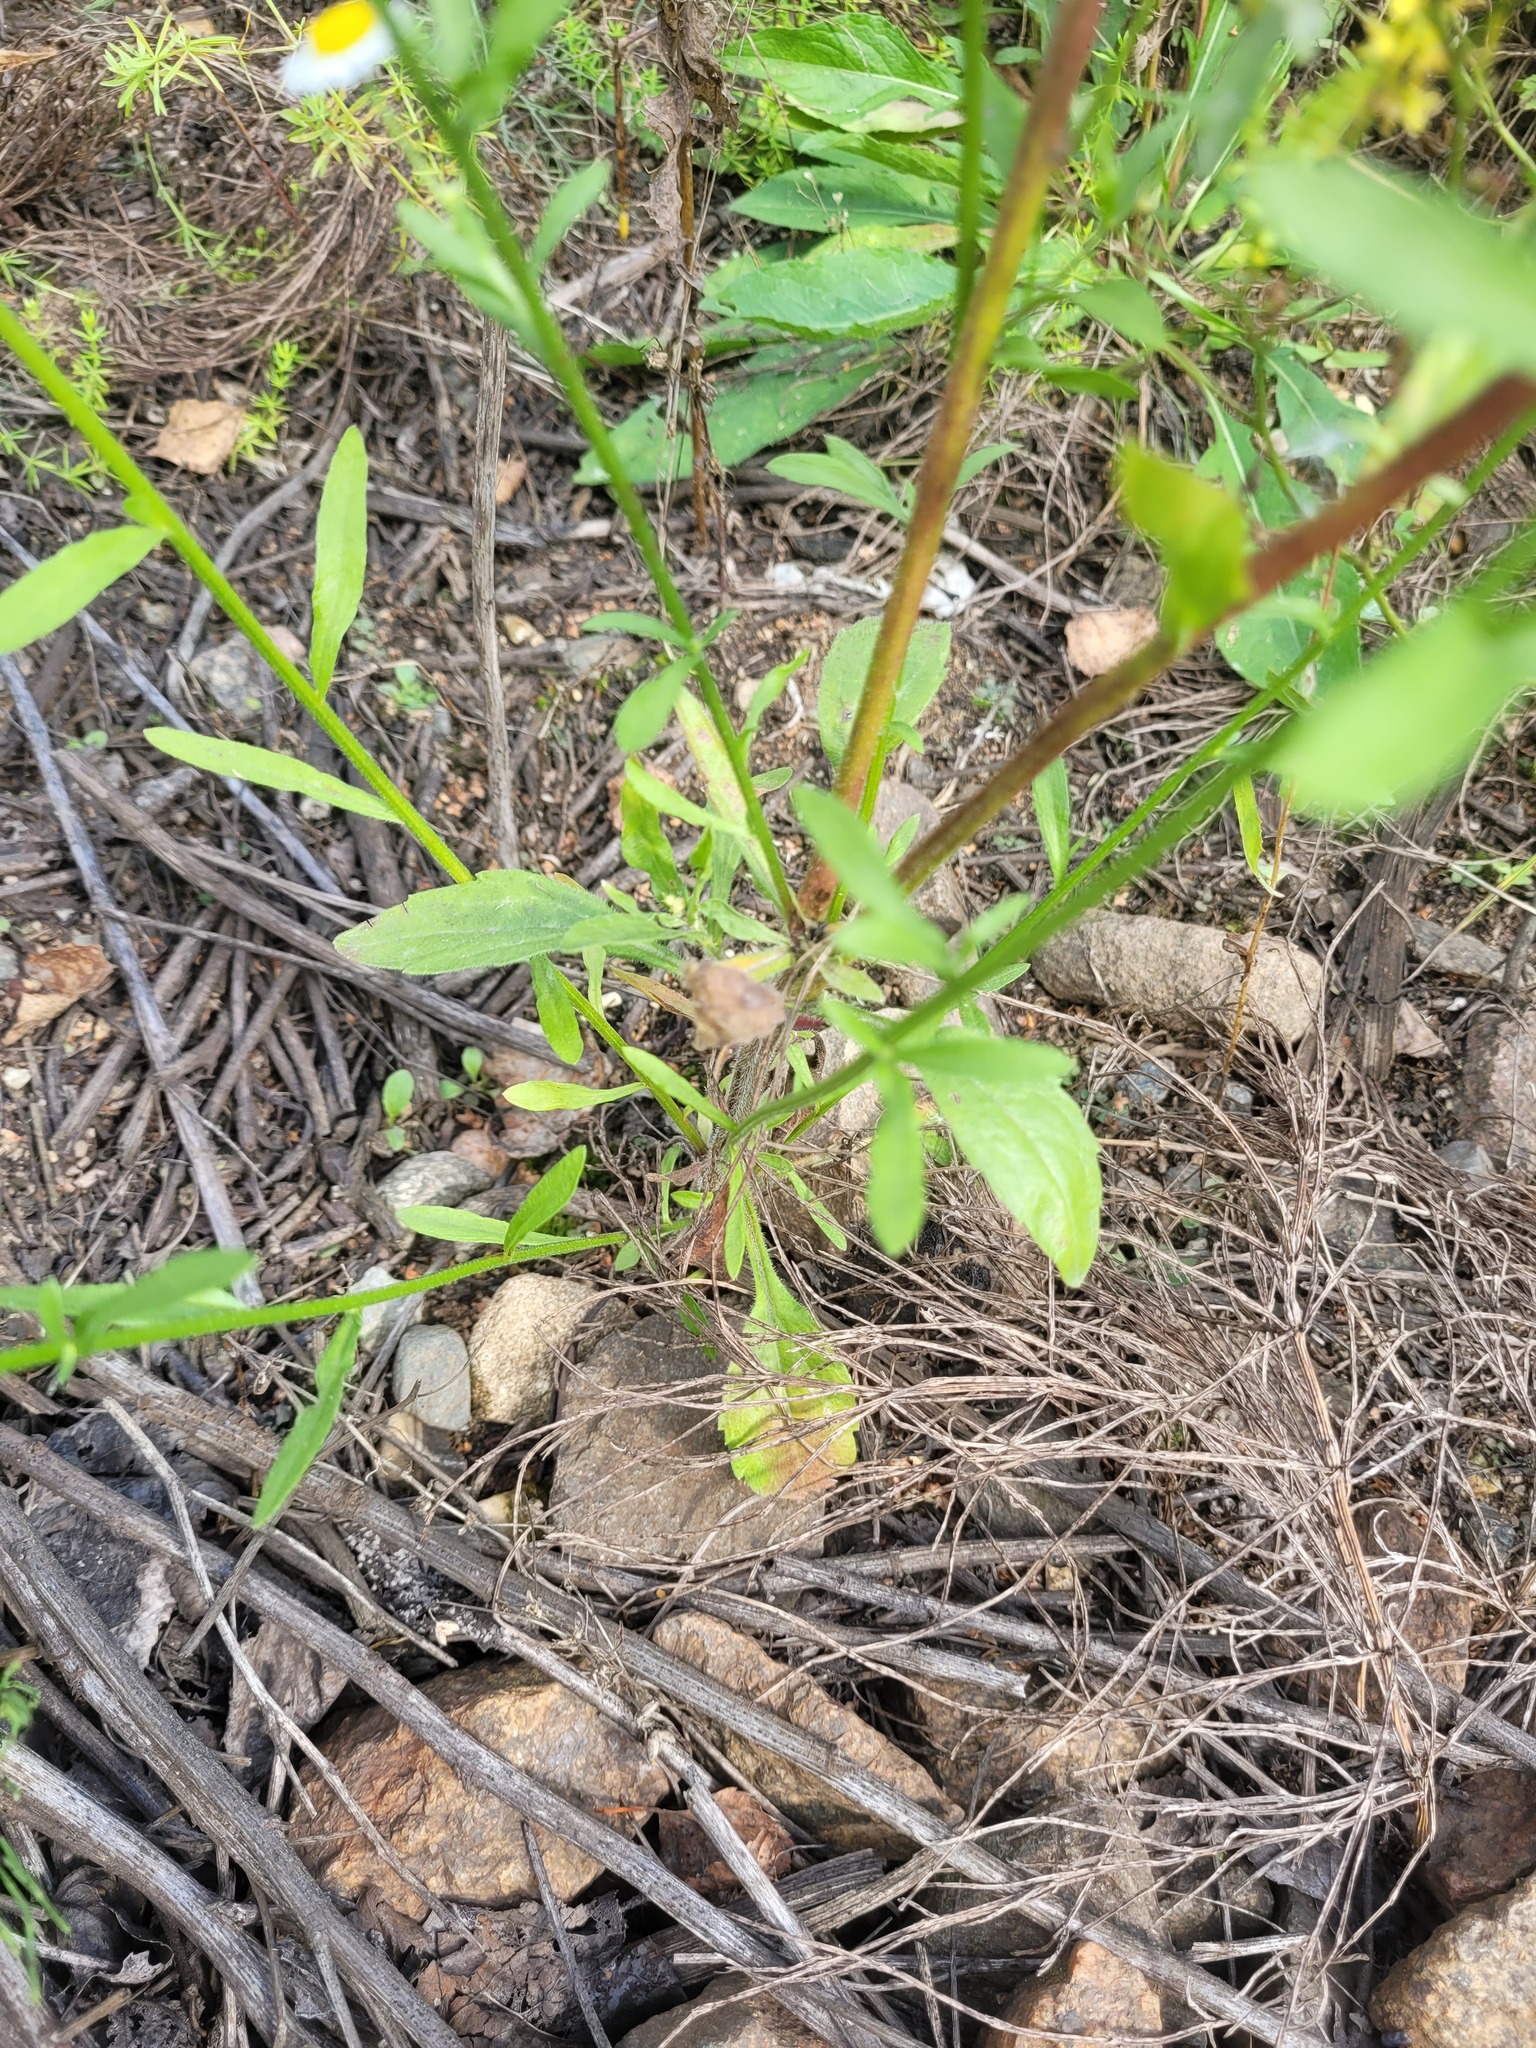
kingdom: Plantae
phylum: Tracheophyta
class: Magnoliopsida
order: Asterales
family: Asteraceae
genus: Erigeron
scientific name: Erigeron annuus
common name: Tall fleabane
